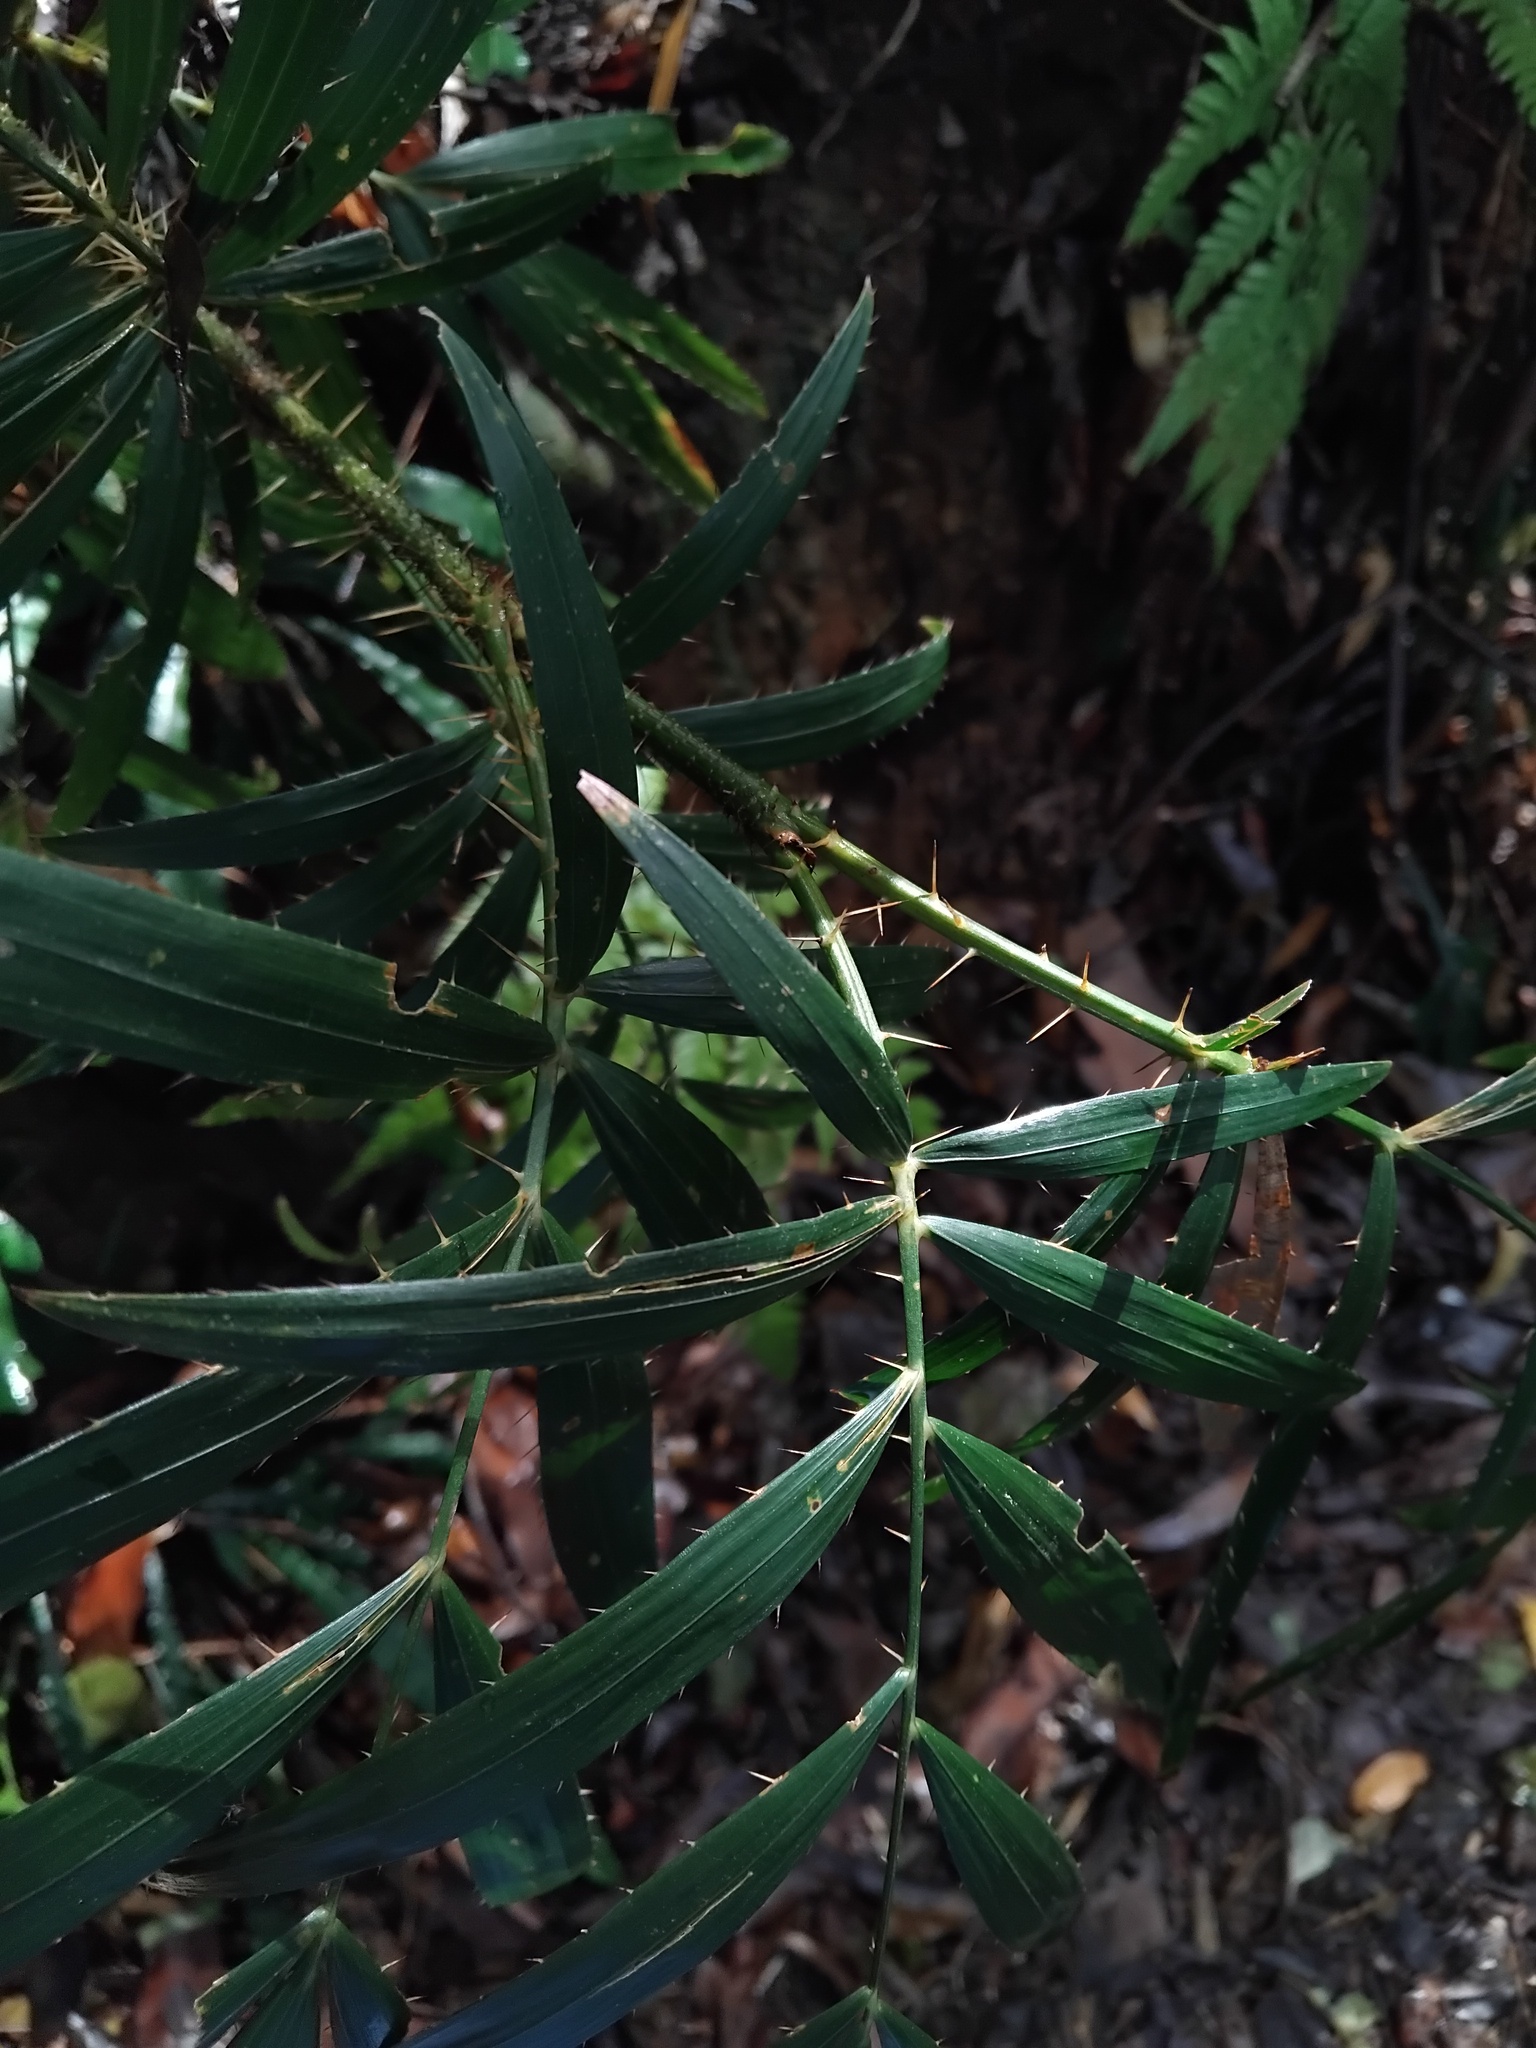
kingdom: Plantae
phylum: Tracheophyta
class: Liliopsida
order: Arecales
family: Arecaceae
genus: Calamus
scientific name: Calamus muelleri
